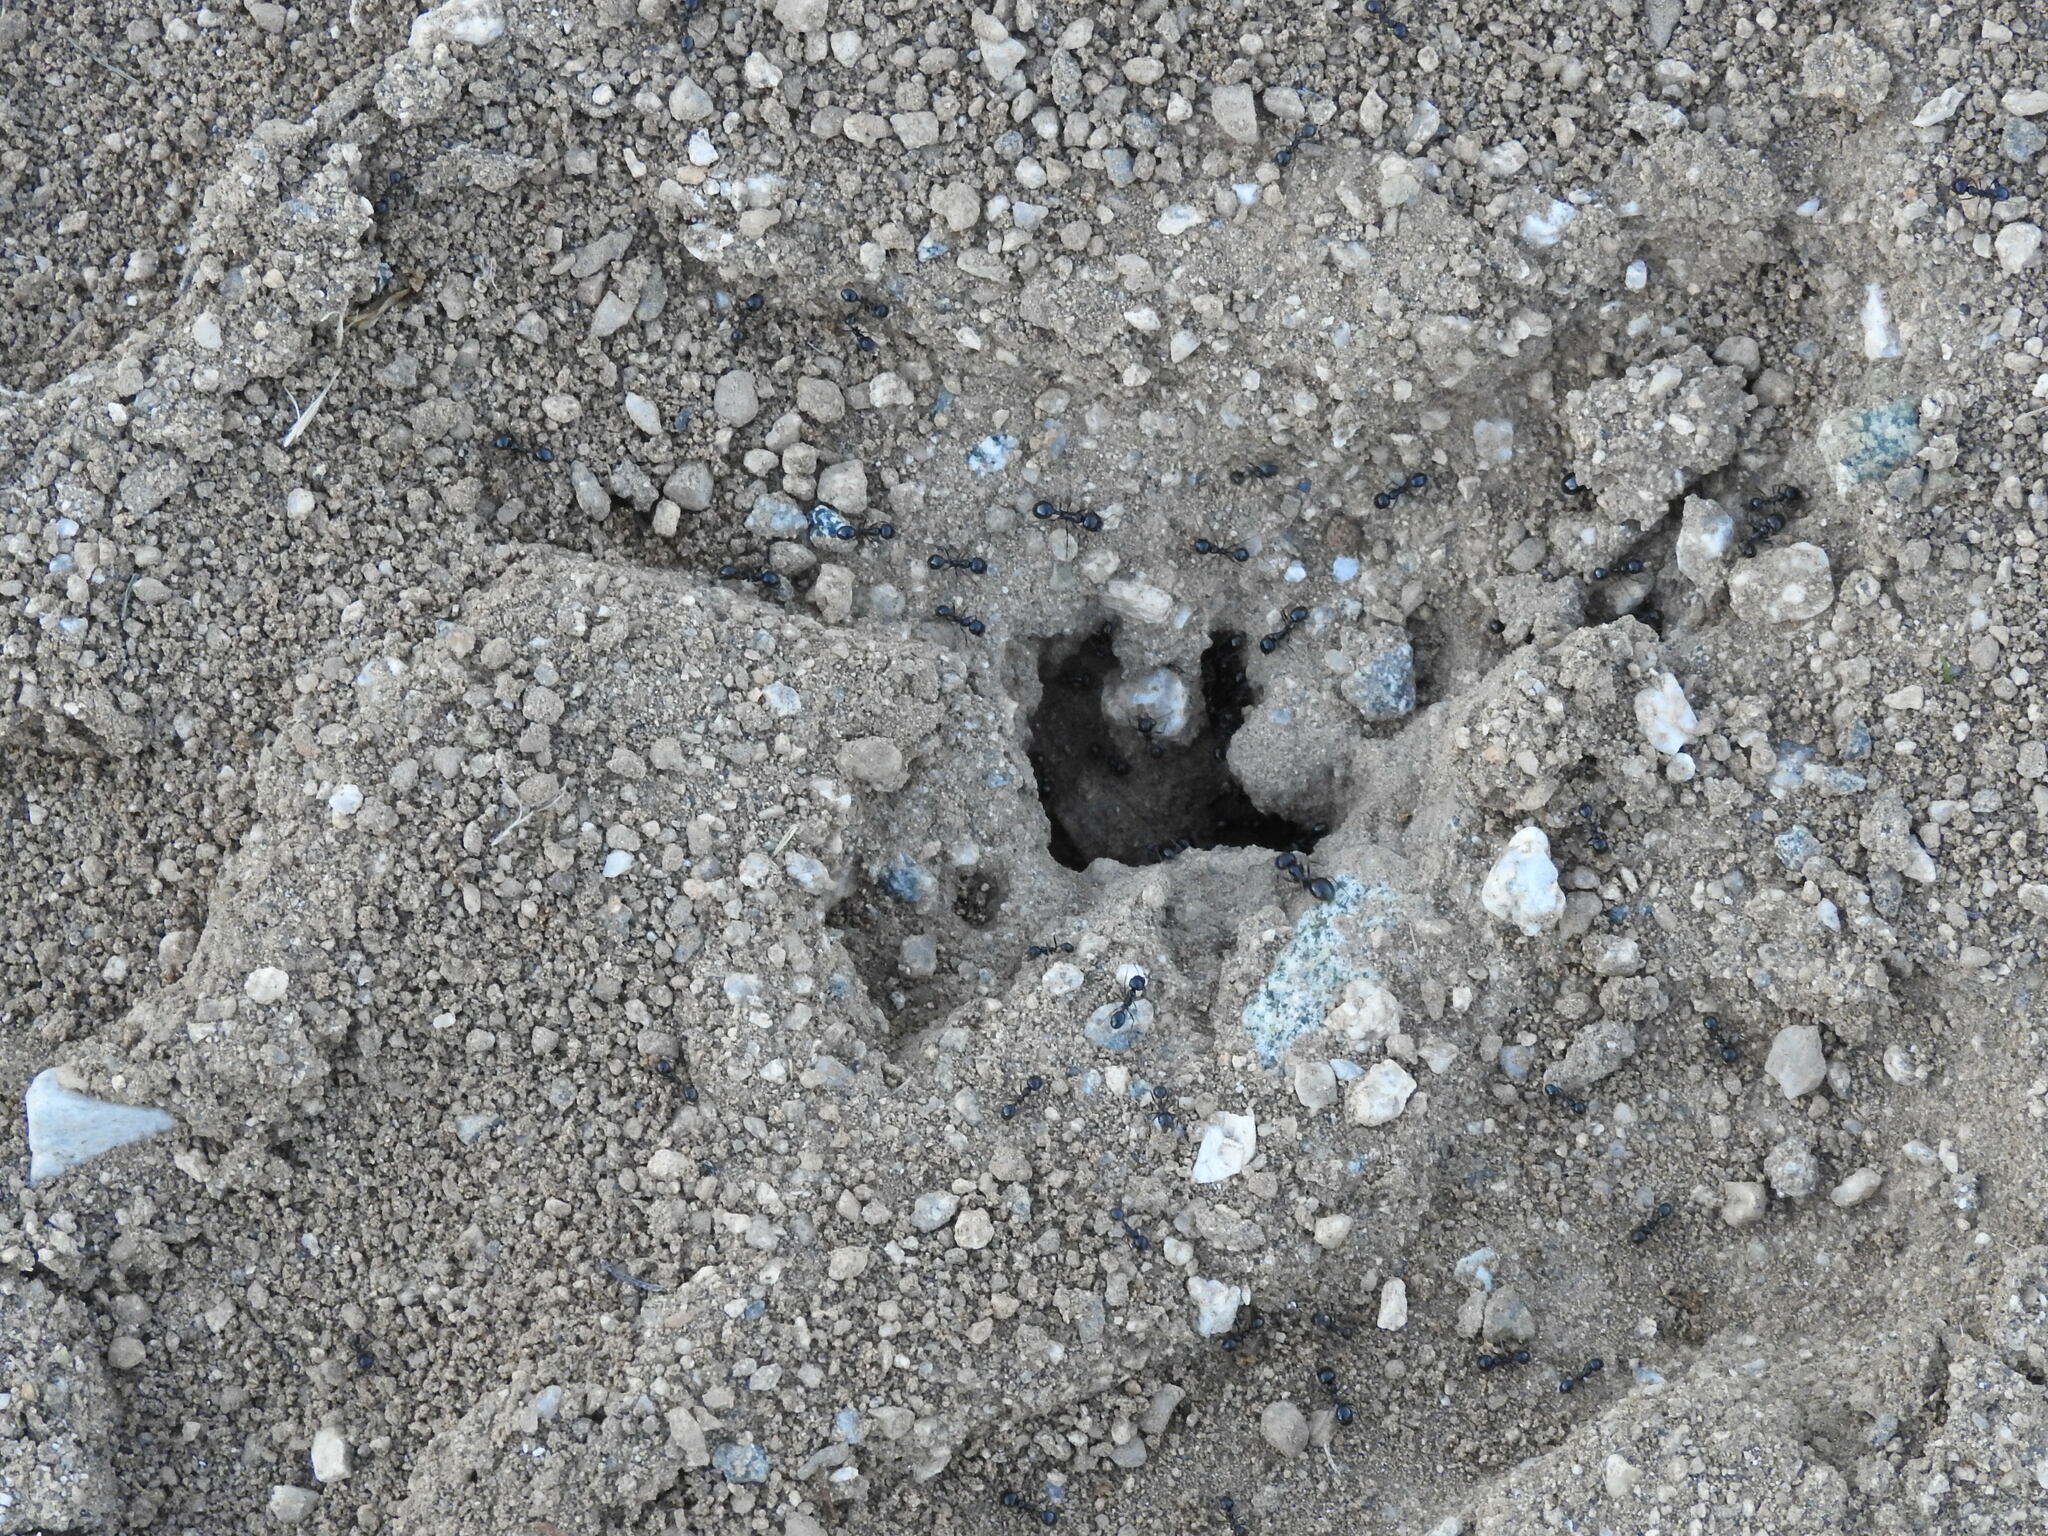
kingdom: Animalia
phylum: Arthropoda
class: Insecta
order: Hymenoptera
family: Formicidae
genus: Messor
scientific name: Messor pergandei
